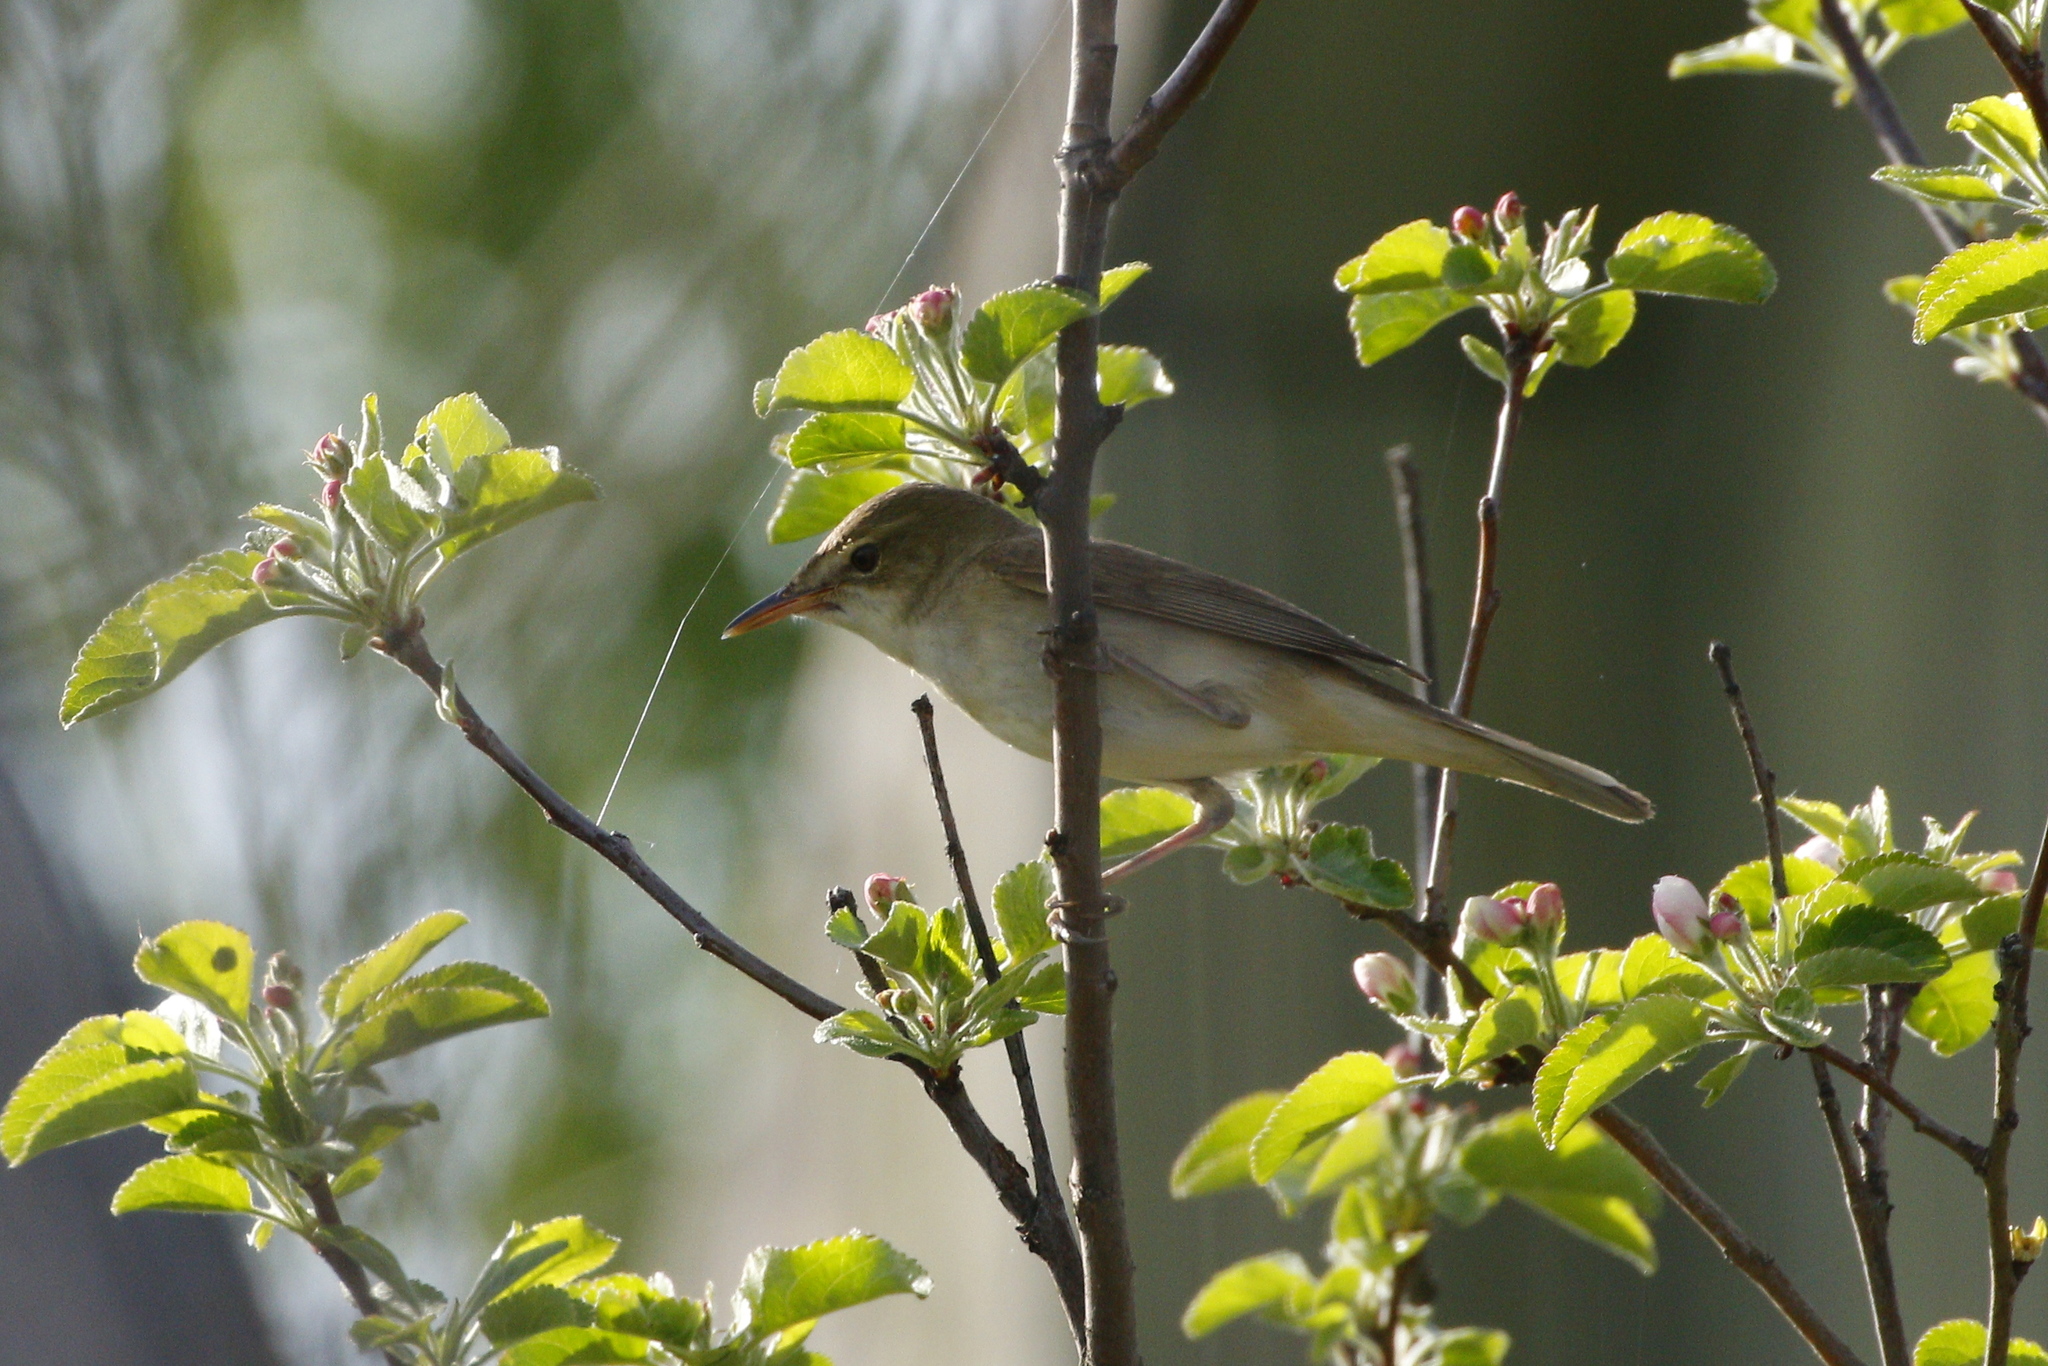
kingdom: Animalia
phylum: Chordata
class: Aves
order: Passeriformes
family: Acrocephalidae
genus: Acrocephalus
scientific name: Acrocephalus dumetorum
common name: Blyth's reed warbler
